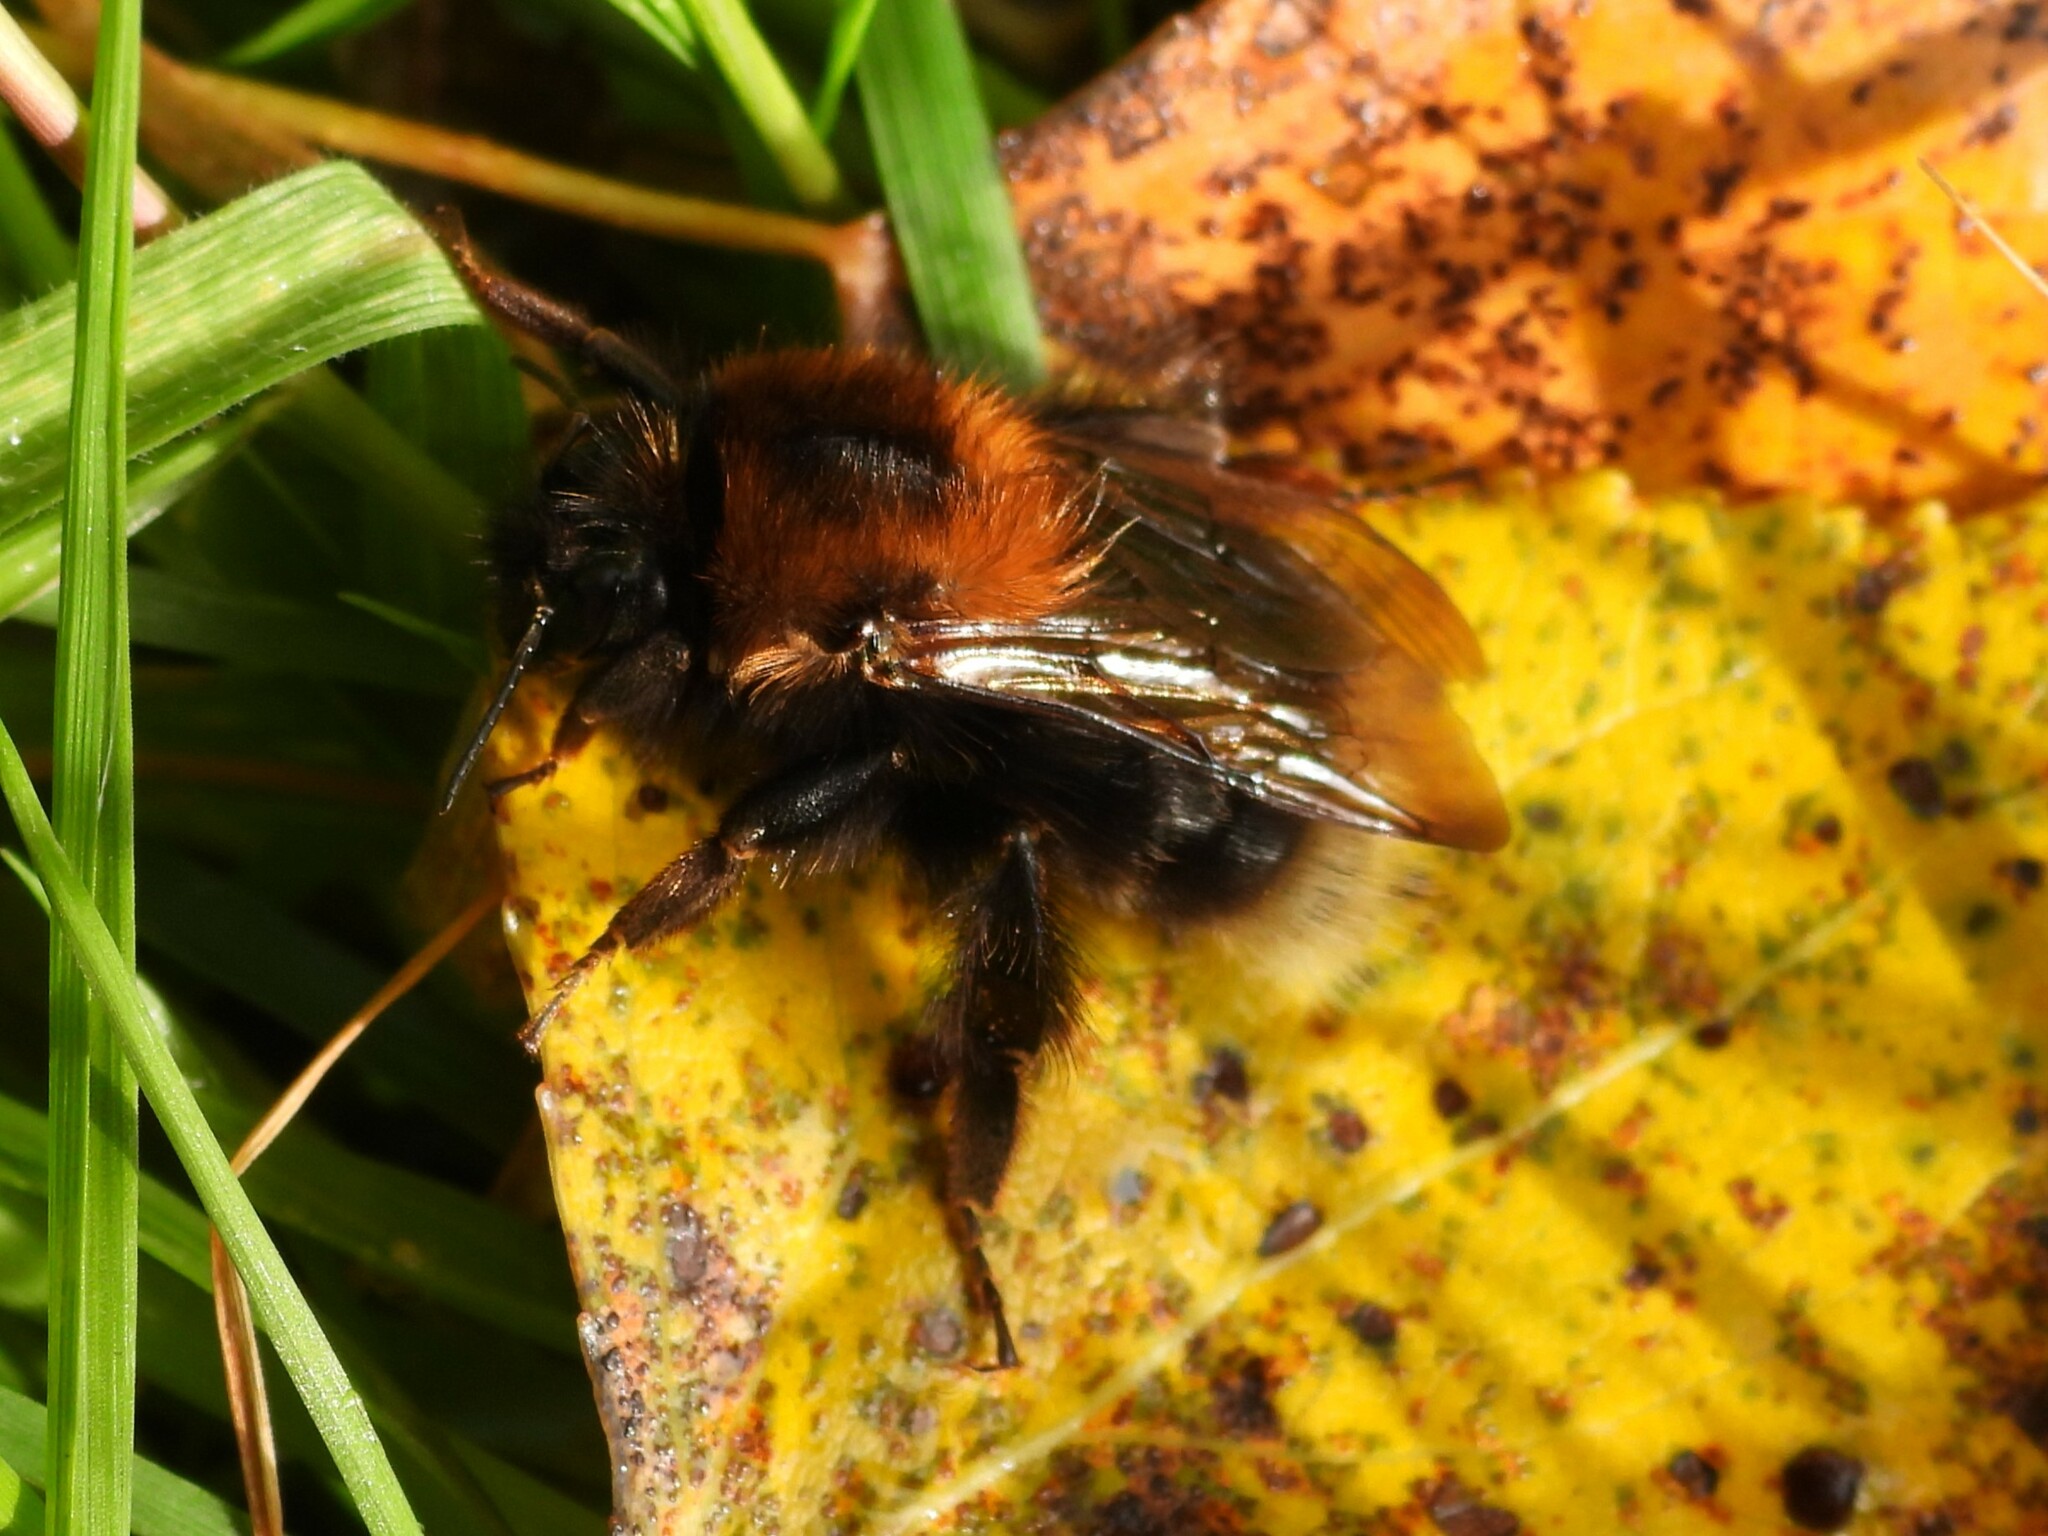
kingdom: Animalia
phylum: Arthropoda
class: Insecta
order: Hymenoptera
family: Apidae
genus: Bombus
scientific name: Bombus hypnorum
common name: New garden bumblebee
